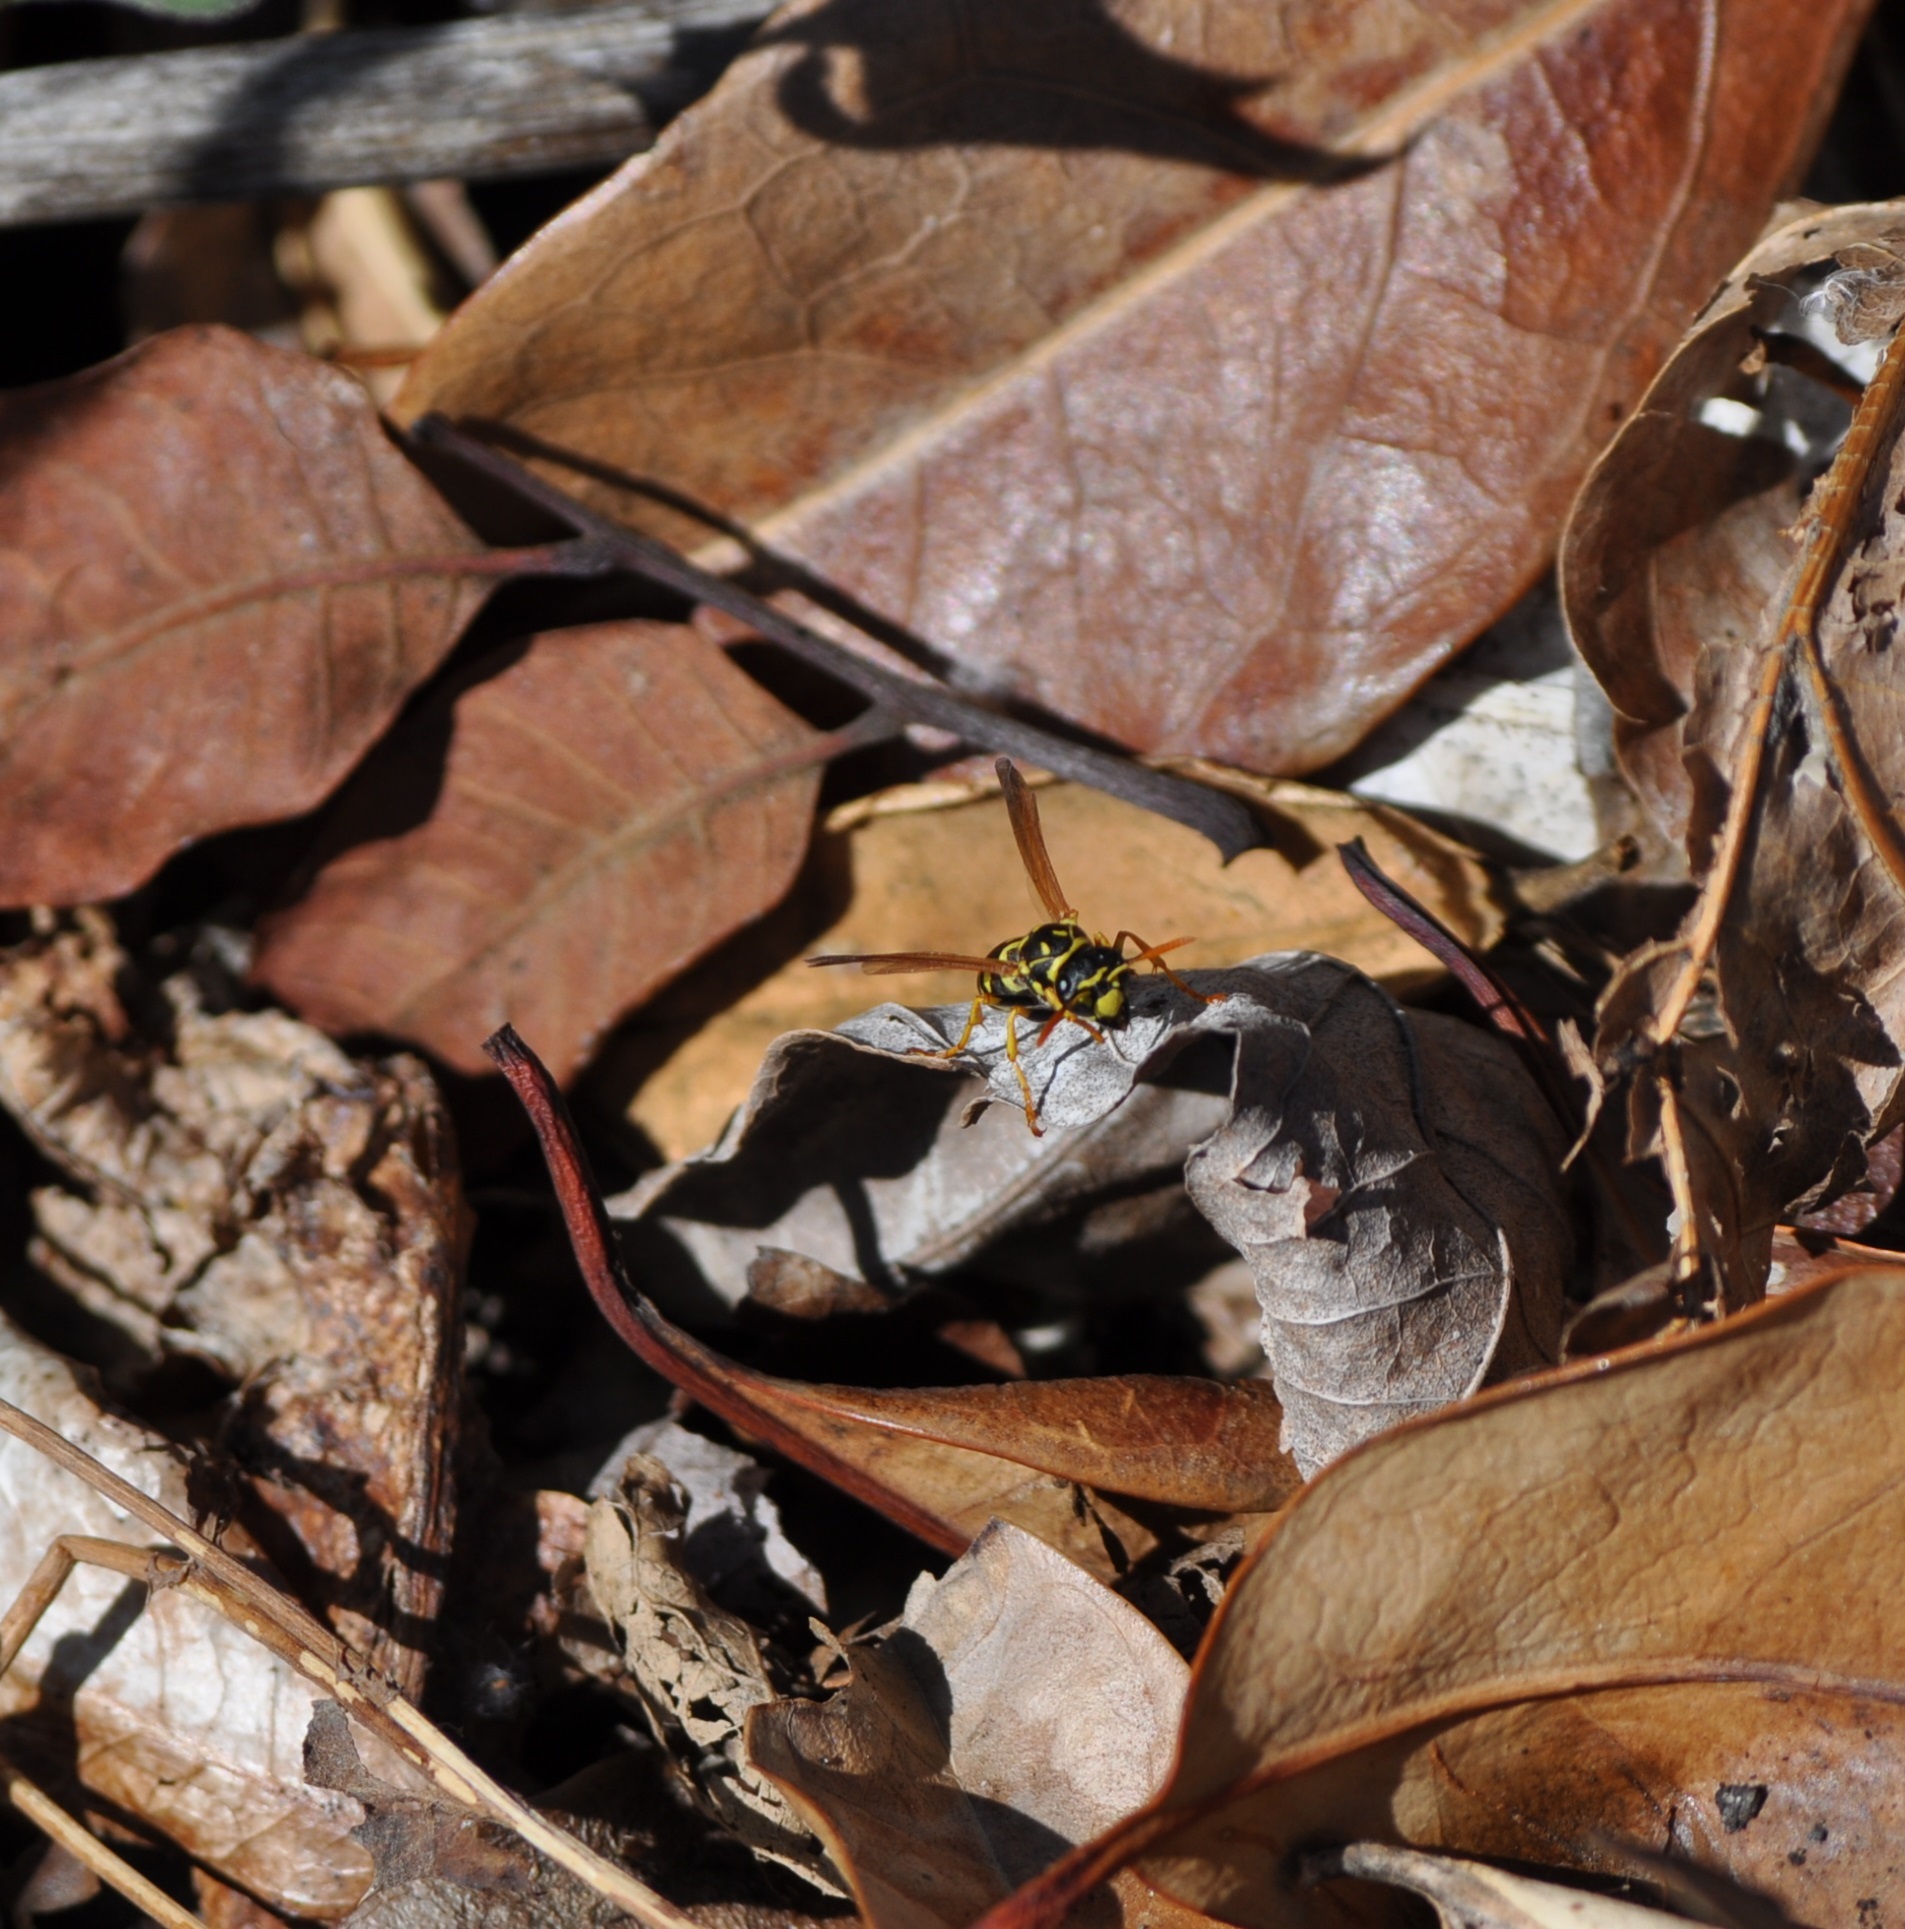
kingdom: Animalia
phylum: Arthropoda
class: Insecta
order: Hymenoptera
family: Eumenidae
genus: Polistes
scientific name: Polistes dominula
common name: Paper wasp
